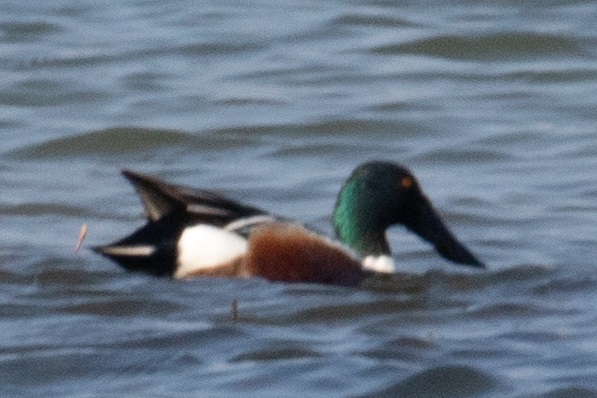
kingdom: Animalia
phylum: Chordata
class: Aves
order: Anseriformes
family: Anatidae
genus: Spatula
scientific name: Spatula clypeata
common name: Northern shoveler
